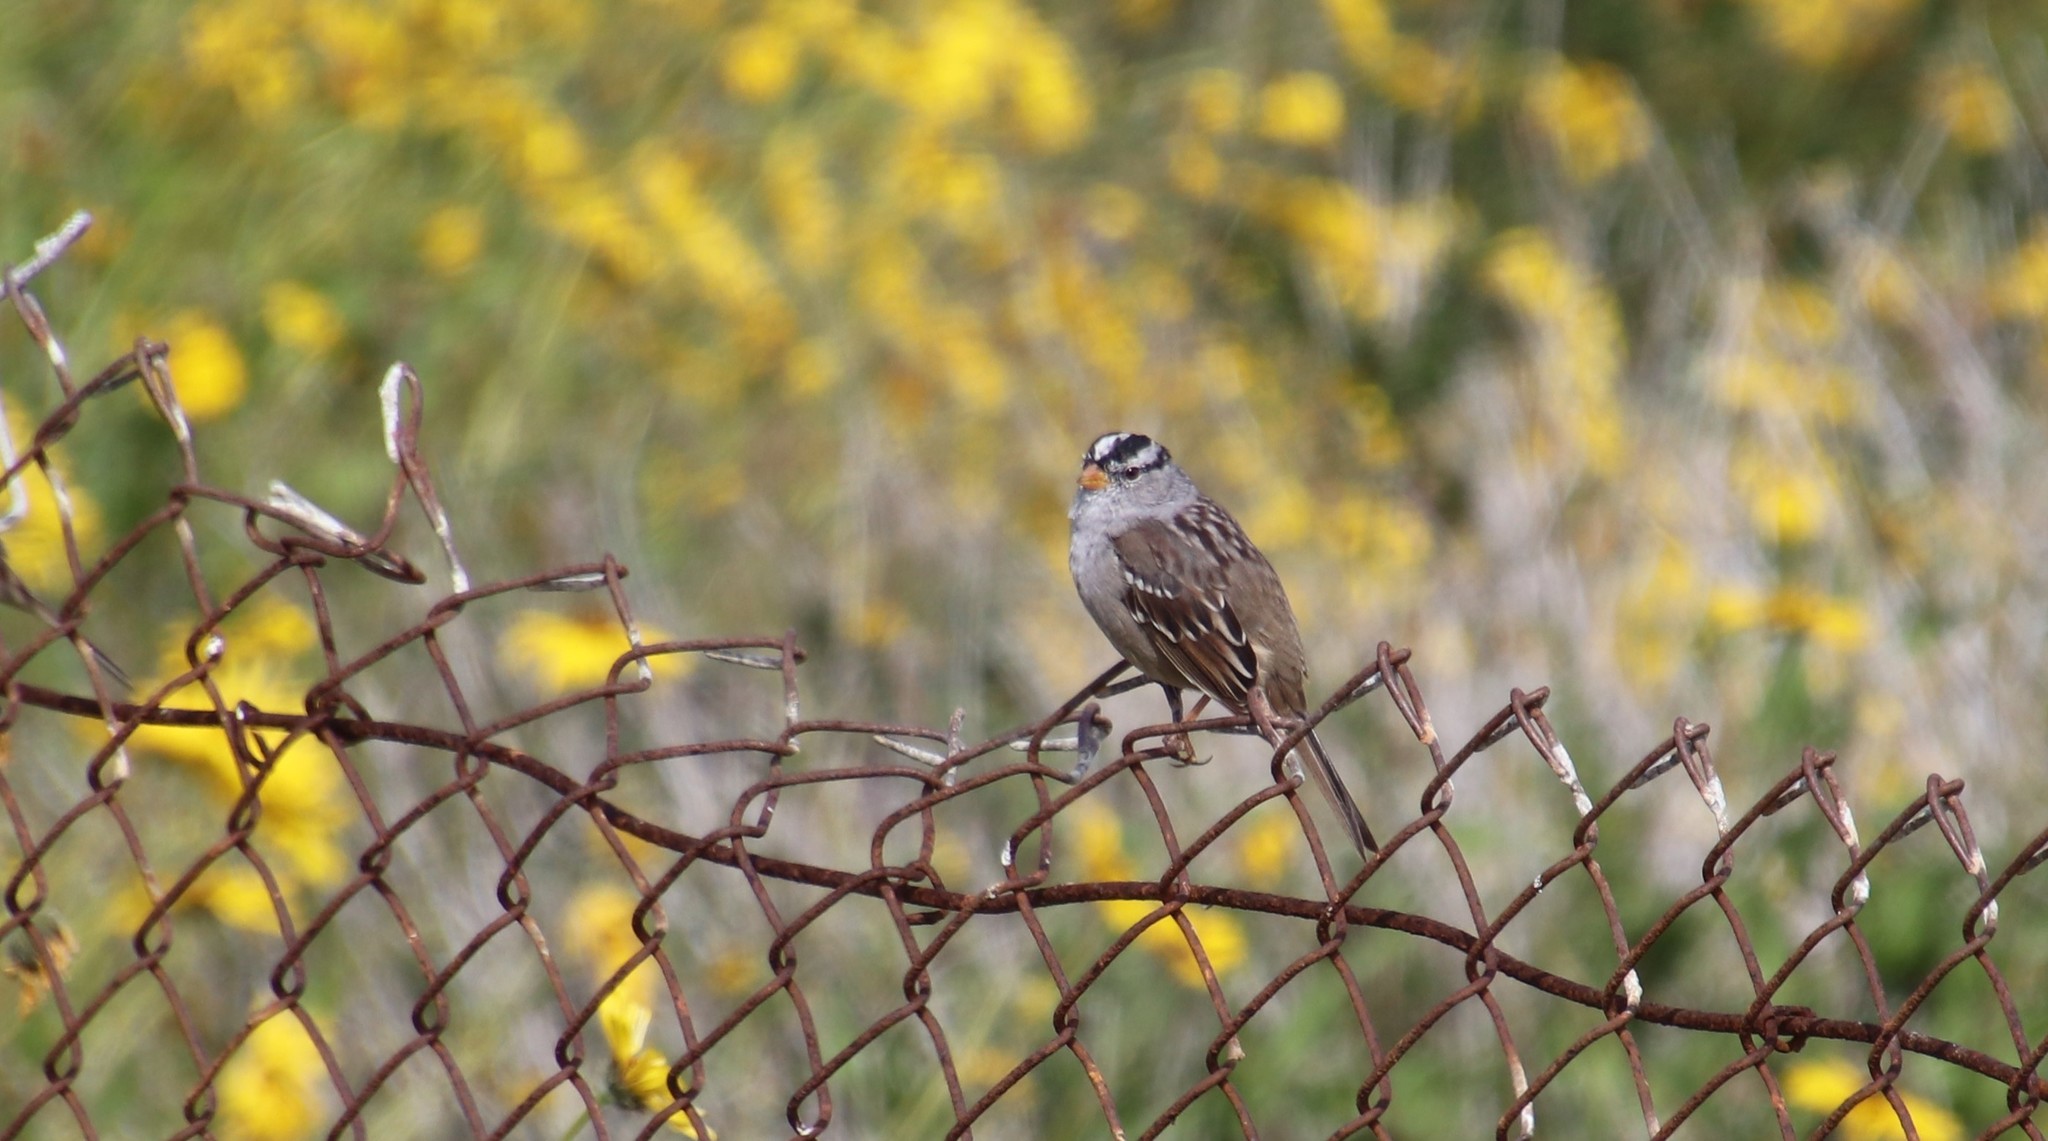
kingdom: Animalia
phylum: Chordata
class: Aves
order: Passeriformes
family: Passerellidae
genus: Zonotrichia
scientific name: Zonotrichia leucophrys
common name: White-crowned sparrow
